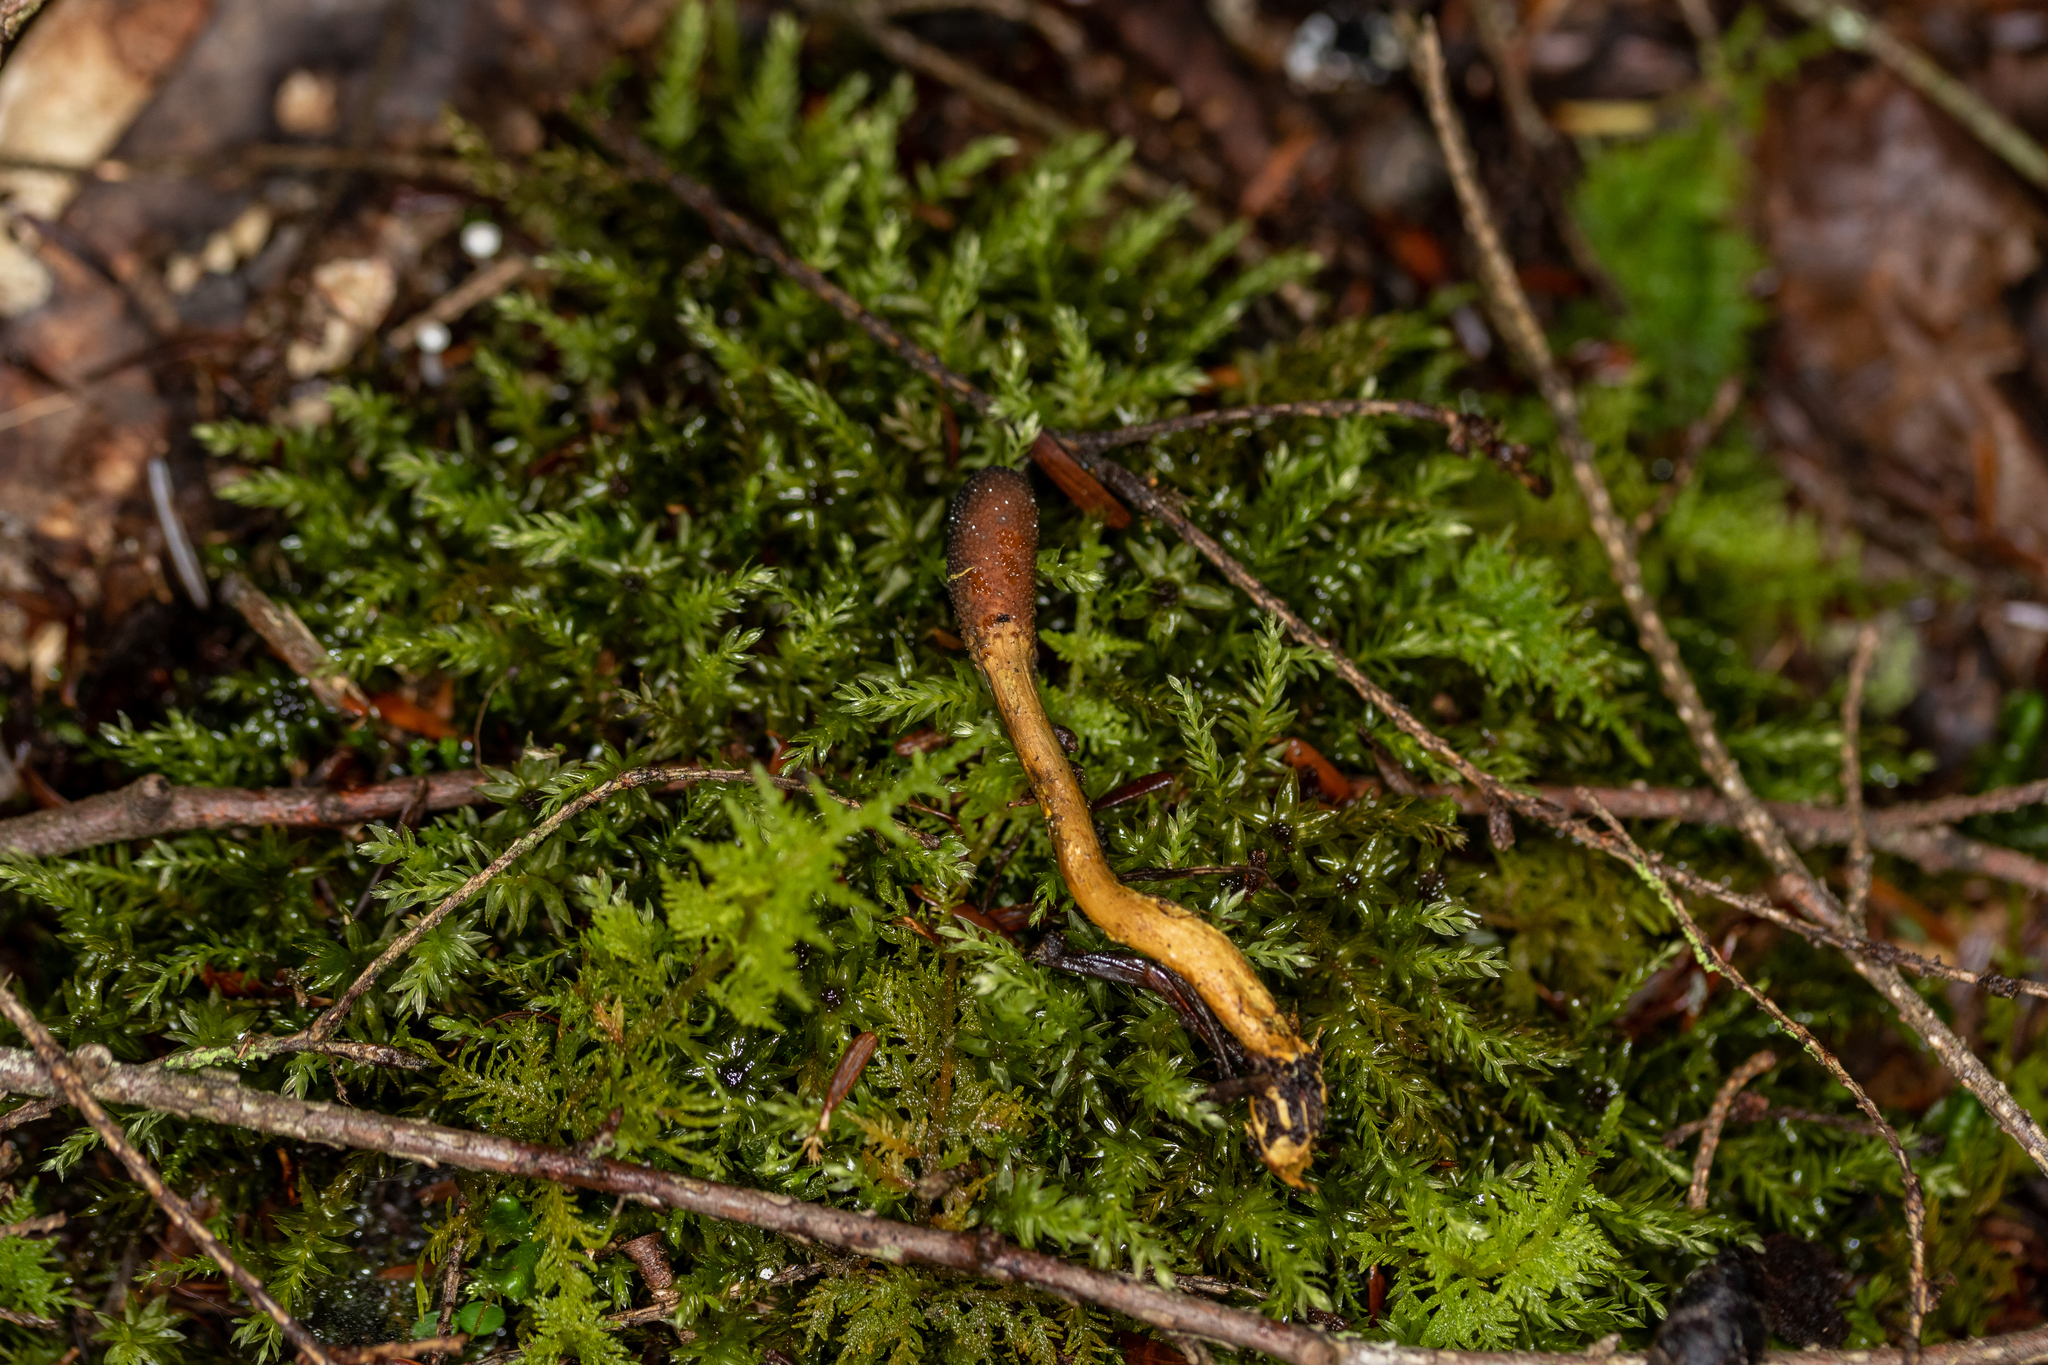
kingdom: Fungi
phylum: Ascomycota
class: Sordariomycetes
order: Hypocreales
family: Ophiocordycipitaceae
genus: Tolypocladium
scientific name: Tolypocladium ophioglossoides
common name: Snaketongue truffleclub
